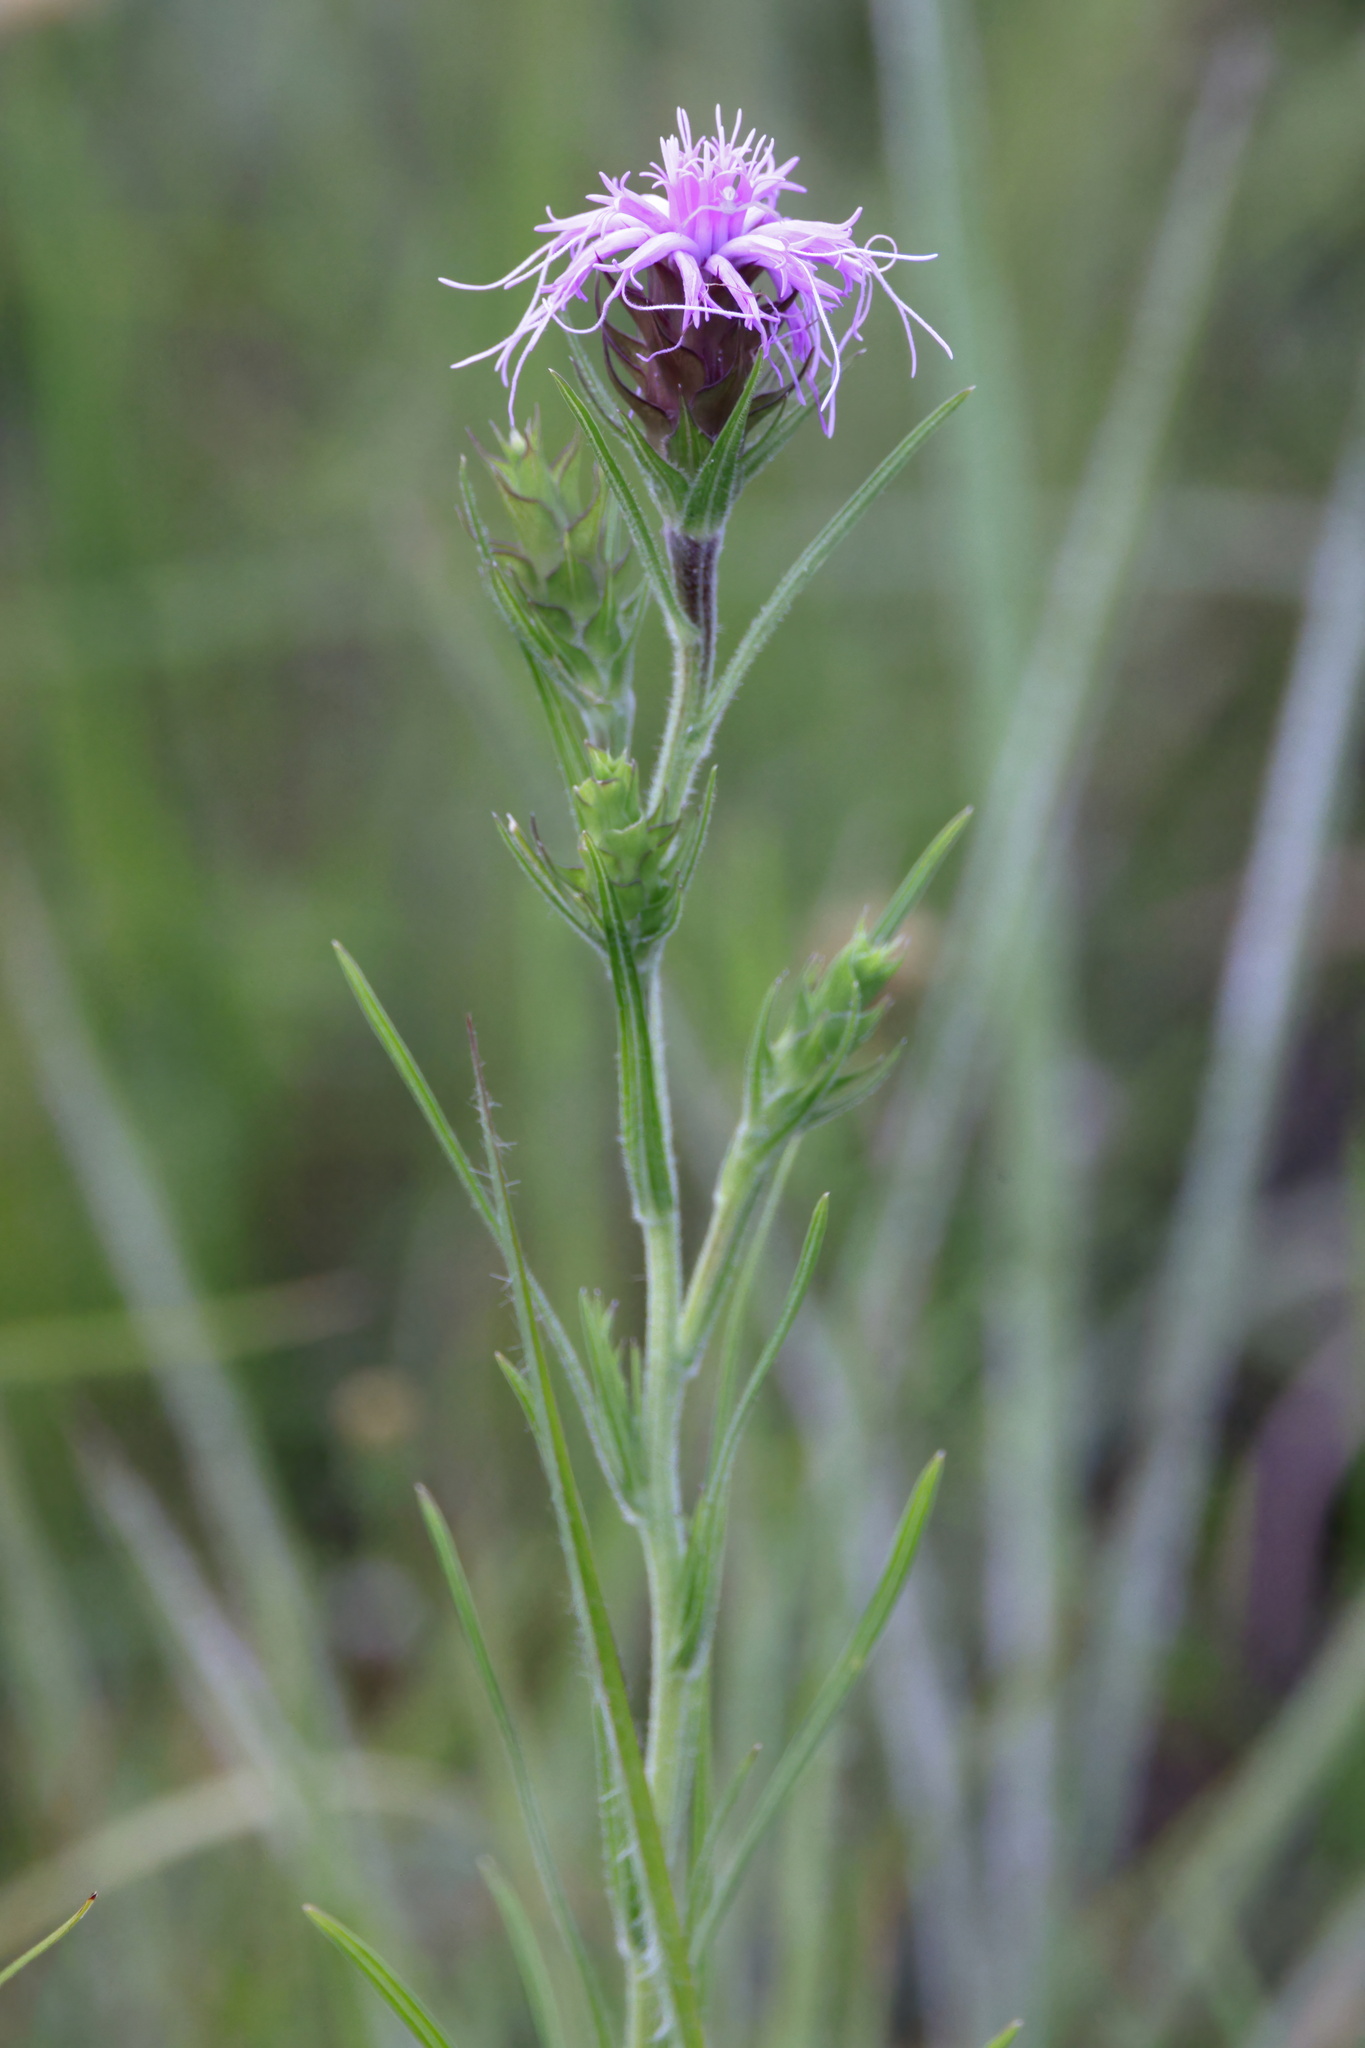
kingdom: Plantae
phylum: Tracheophyta
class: Magnoliopsida
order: Asterales
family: Asteraceae
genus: Liatris
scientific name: Liatris squarrosa
